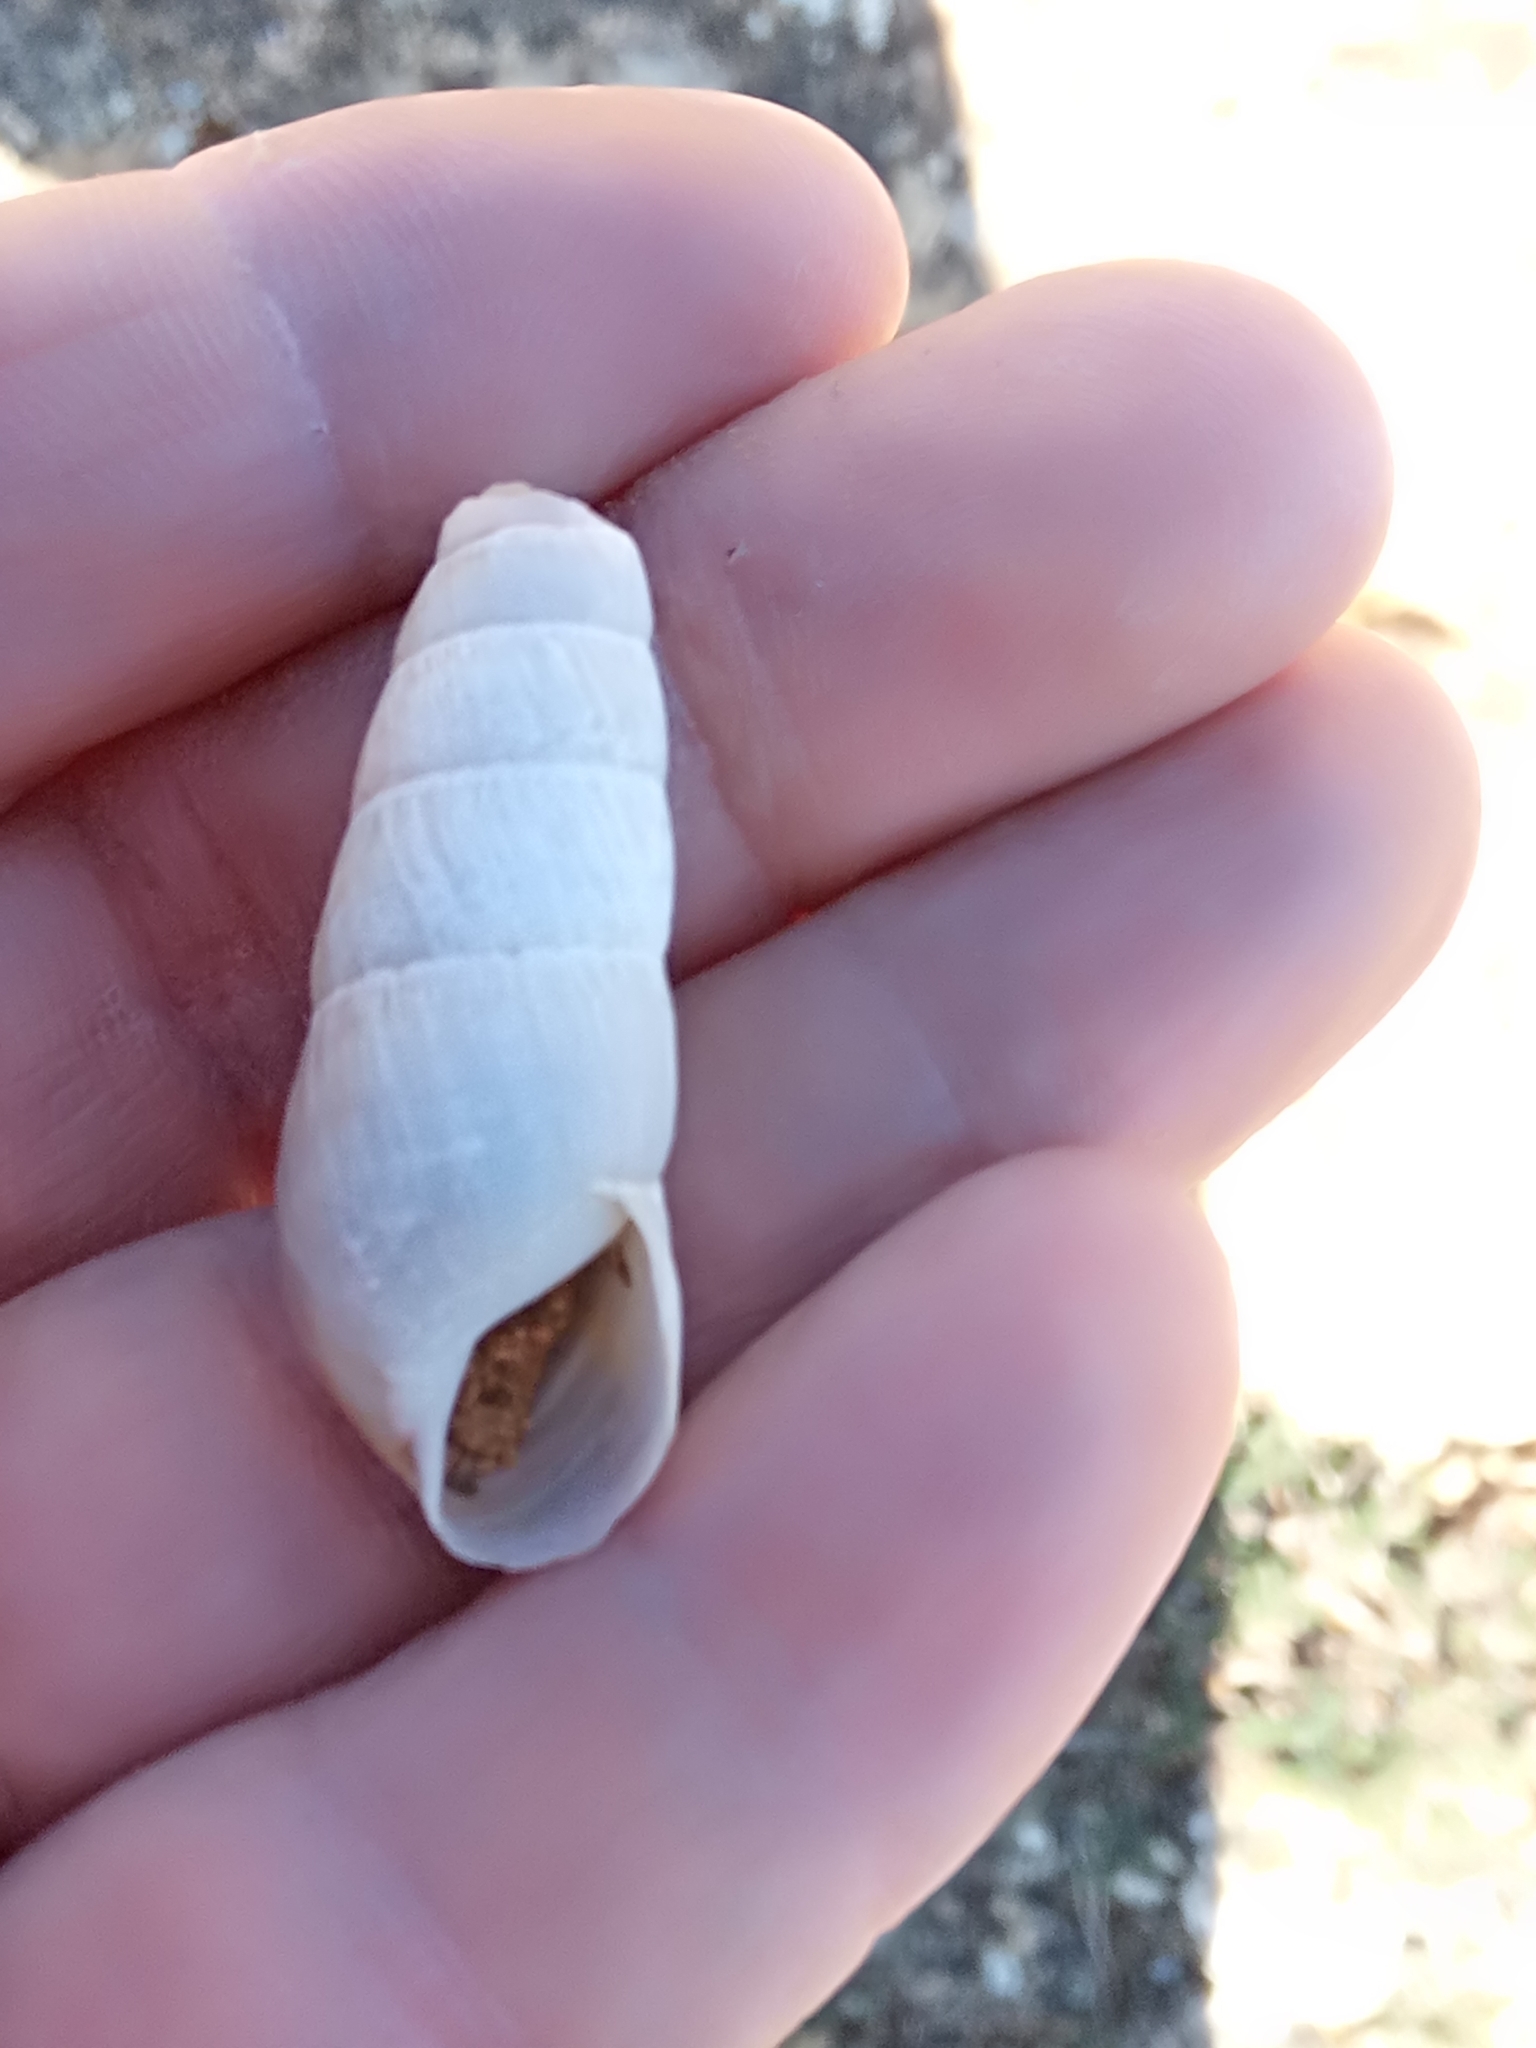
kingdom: Animalia
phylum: Mollusca
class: Gastropoda
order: Stylommatophora
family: Achatinidae
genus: Rumina
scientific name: Rumina decollata
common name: Decollate snail
